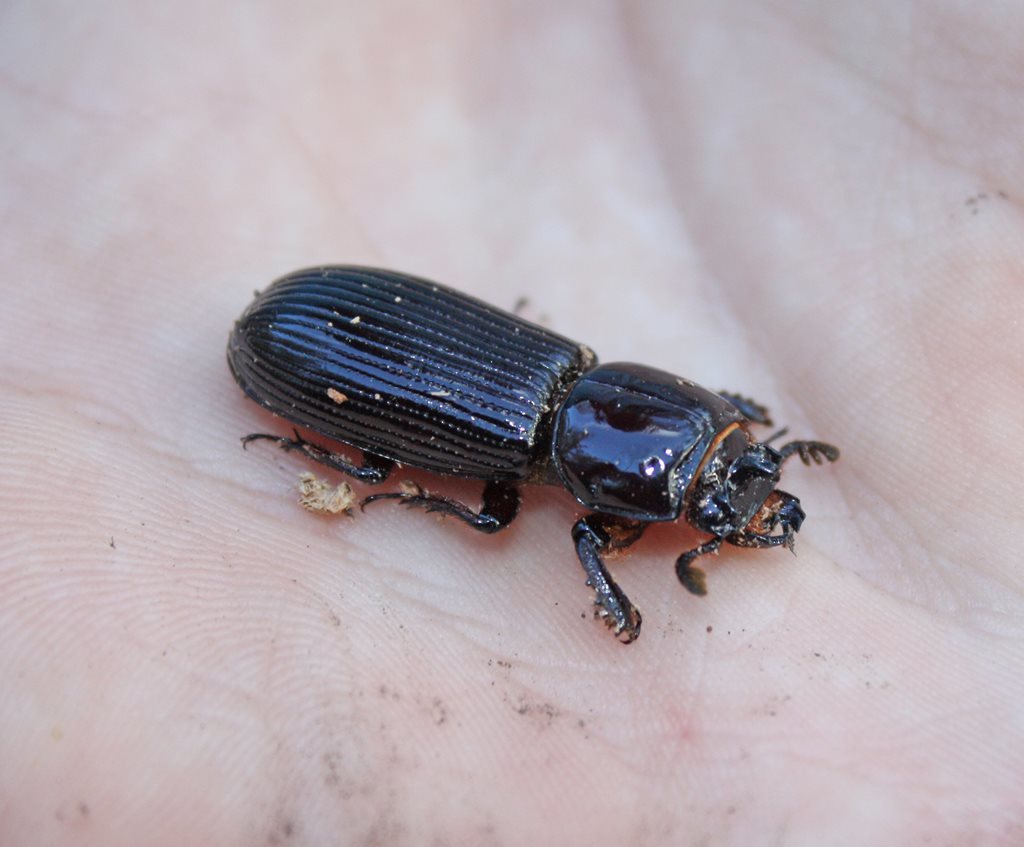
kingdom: Animalia
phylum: Arthropoda
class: Insecta
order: Coleoptera
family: Passalidae
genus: Aulacocyclus
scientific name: Aulacocyclus kaupi
